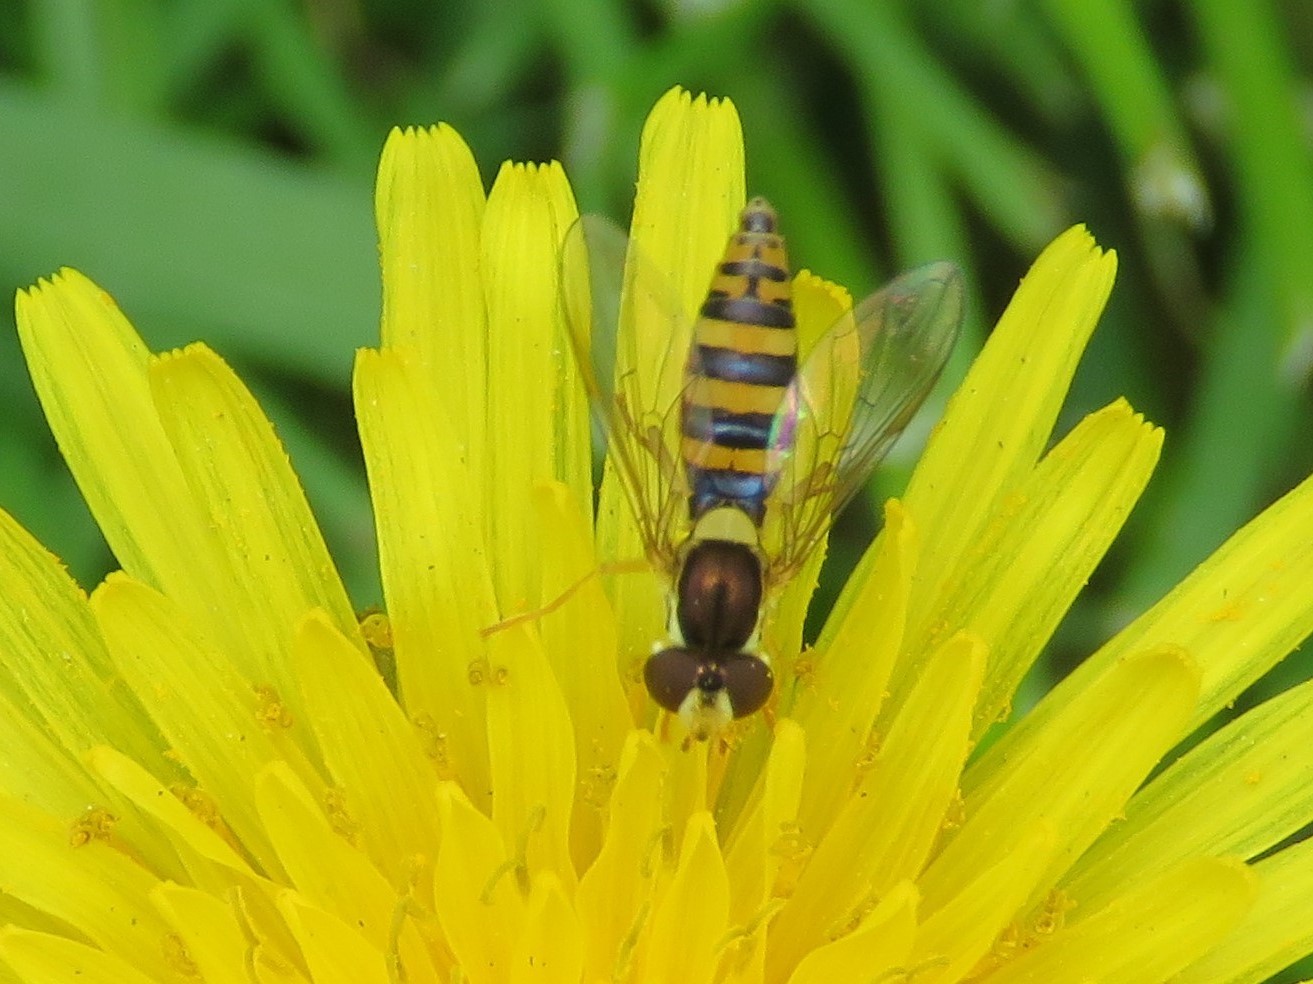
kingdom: Animalia
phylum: Arthropoda
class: Insecta
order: Diptera
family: Syrphidae
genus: Sphaerophoria
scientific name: Sphaerophoria
